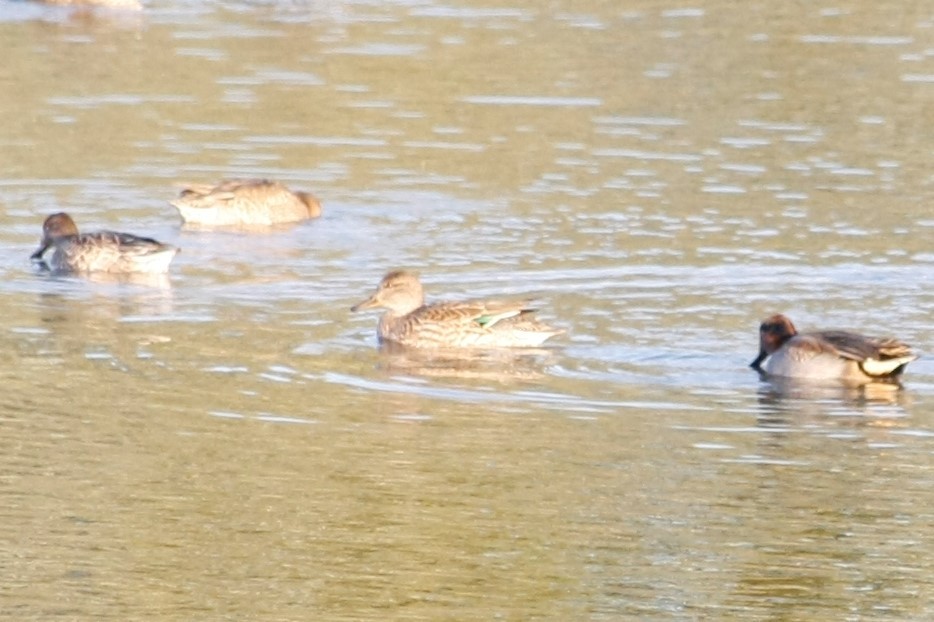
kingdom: Animalia
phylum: Chordata
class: Aves
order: Anseriformes
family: Anatidae
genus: Anas
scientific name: Anas crecca
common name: Eurasian teal
